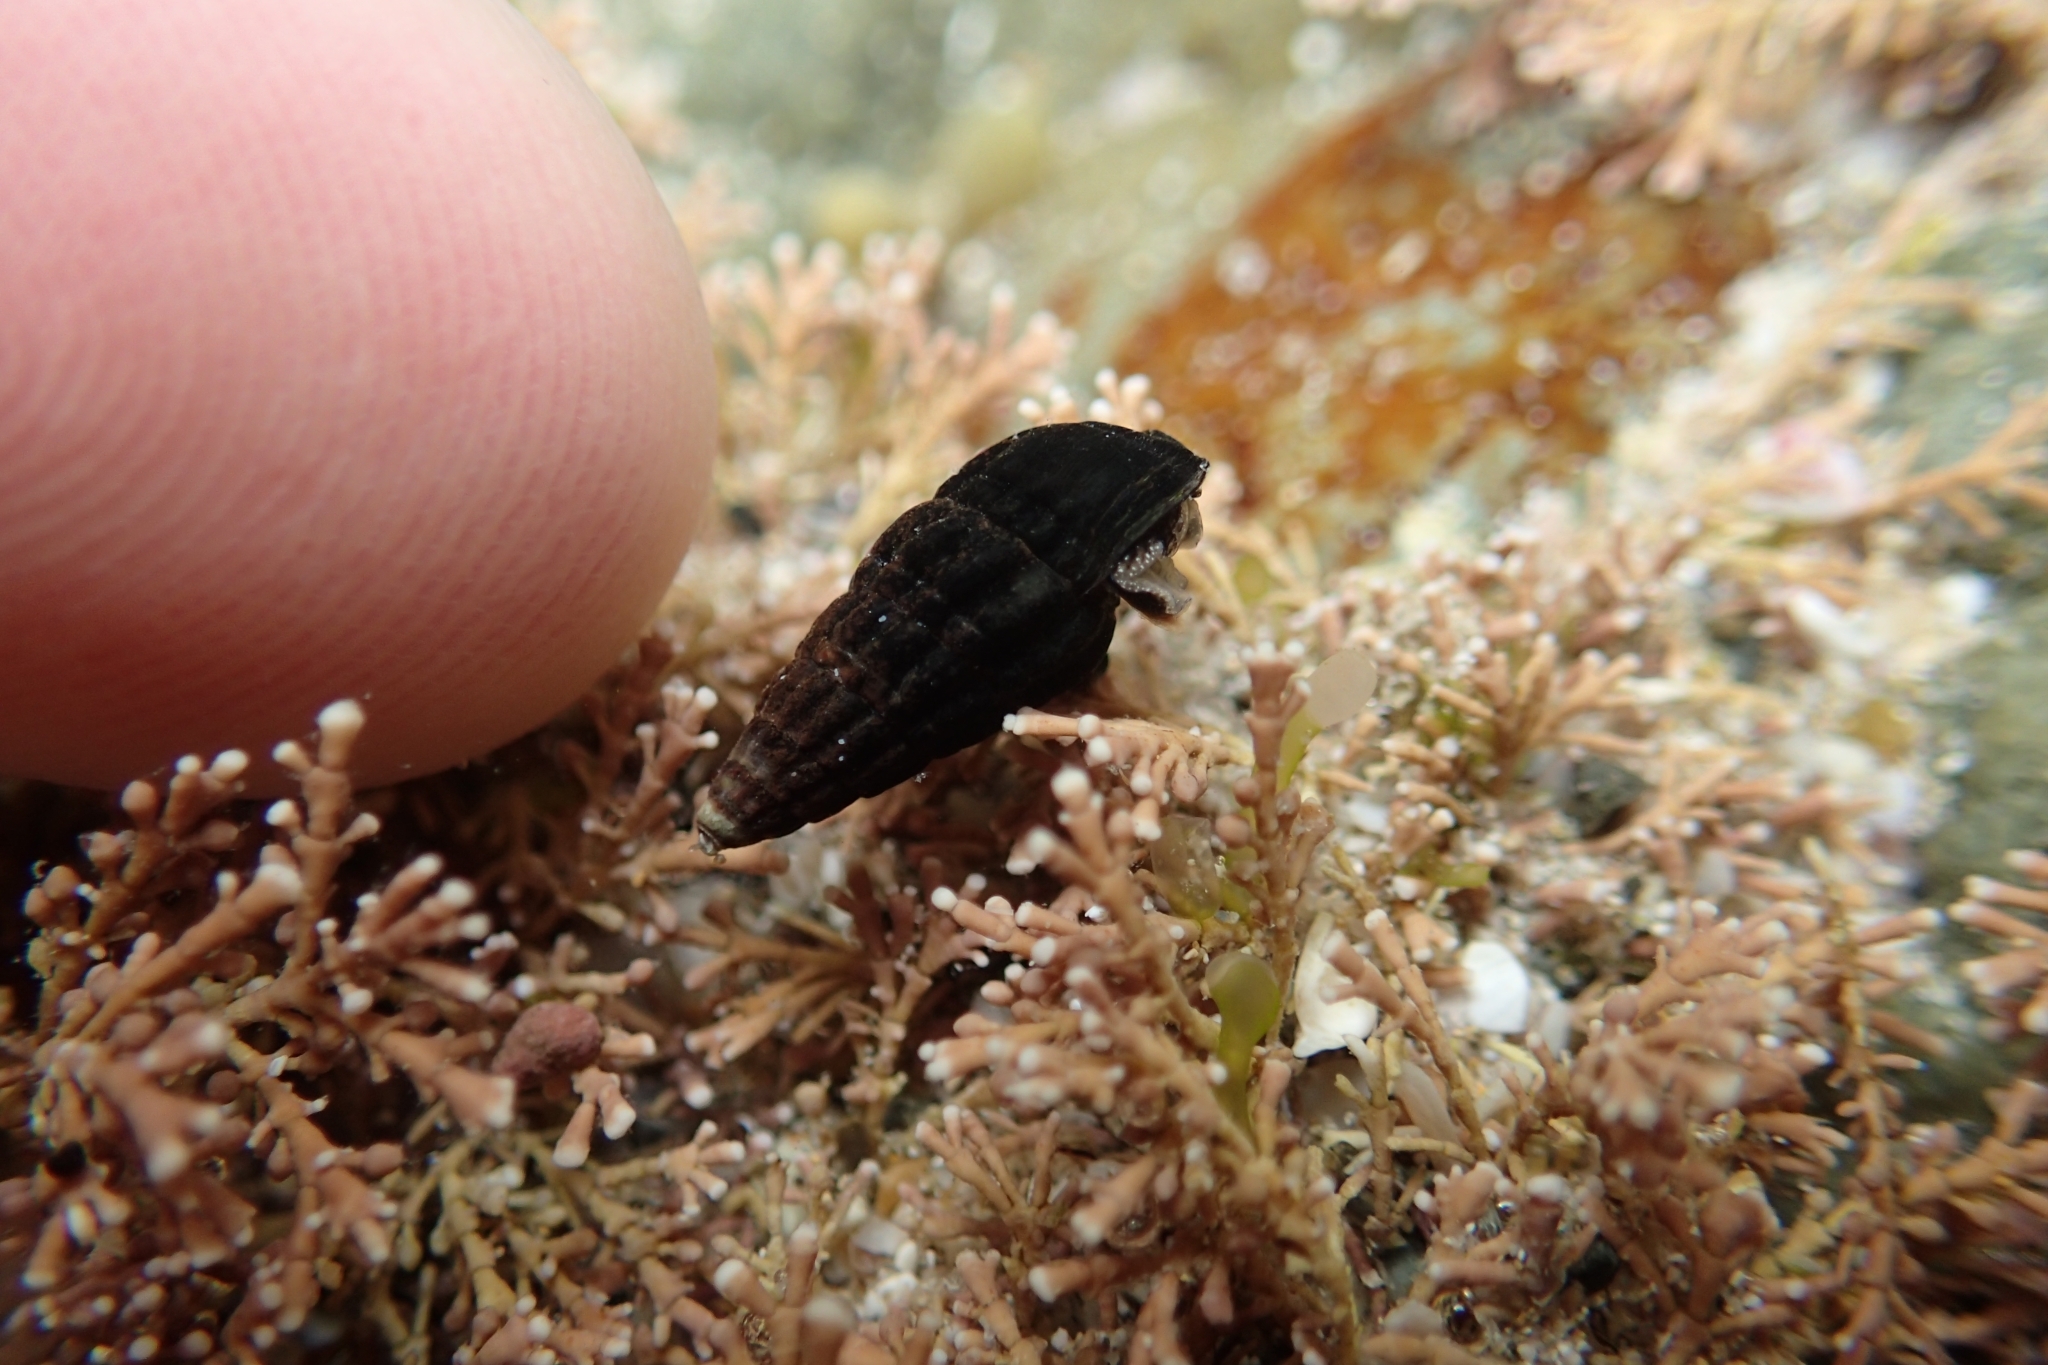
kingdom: Animalia
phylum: Mollusca
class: Gastropoda
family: Batillariidae
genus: Zeacumantus
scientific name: Zeacumantus subcarinatus
